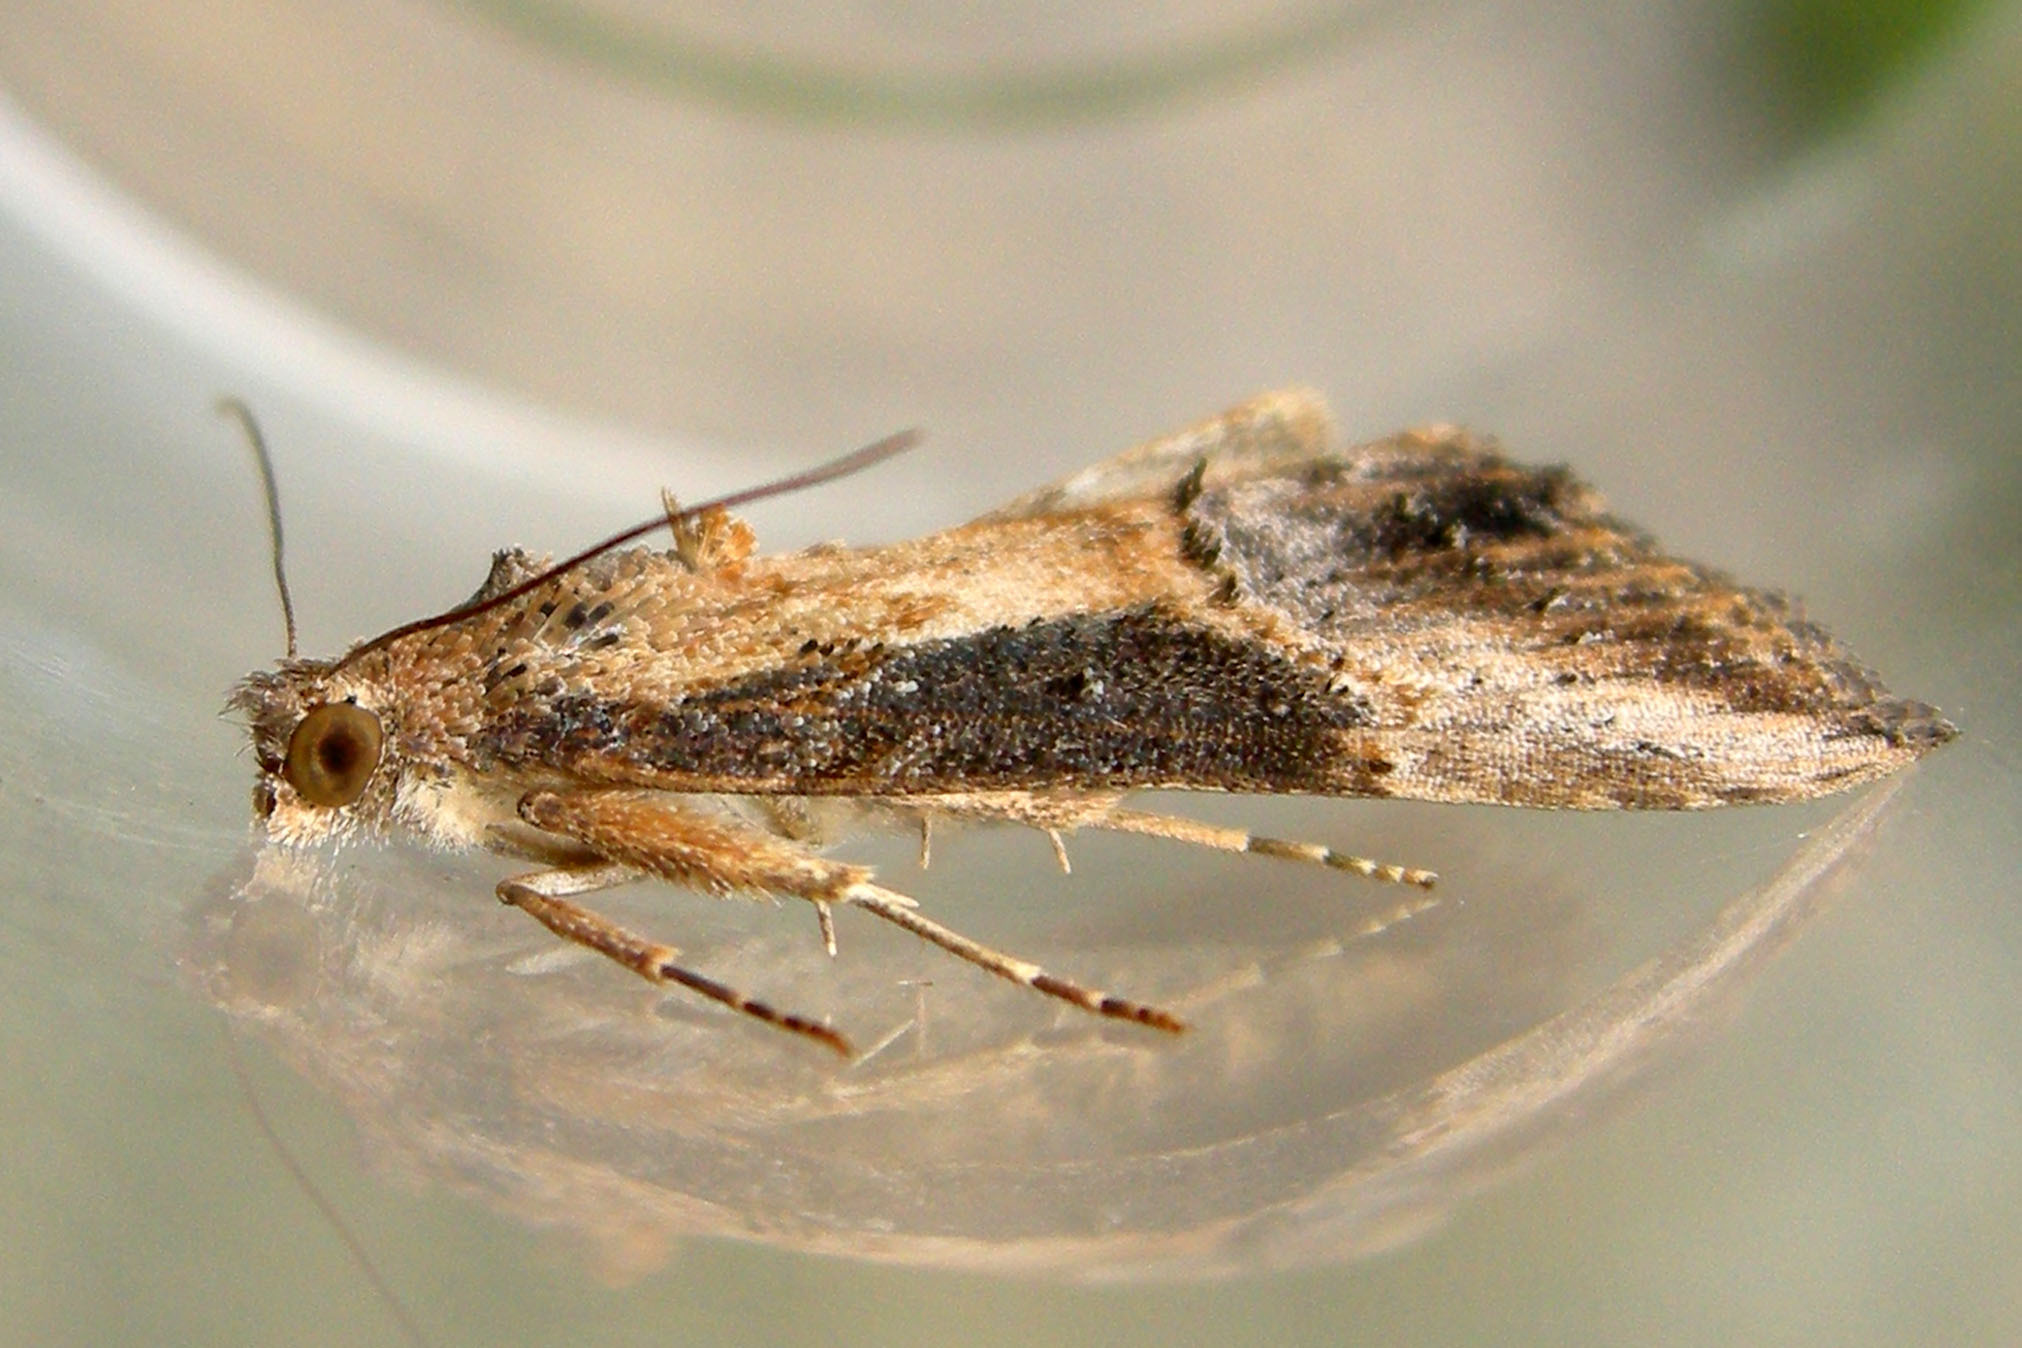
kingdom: Animalia
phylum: Arthropoda
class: Insecta
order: Lepidoptera
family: Erebidae
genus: Hypena
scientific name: Hypena scabra
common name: Green cloverworm
